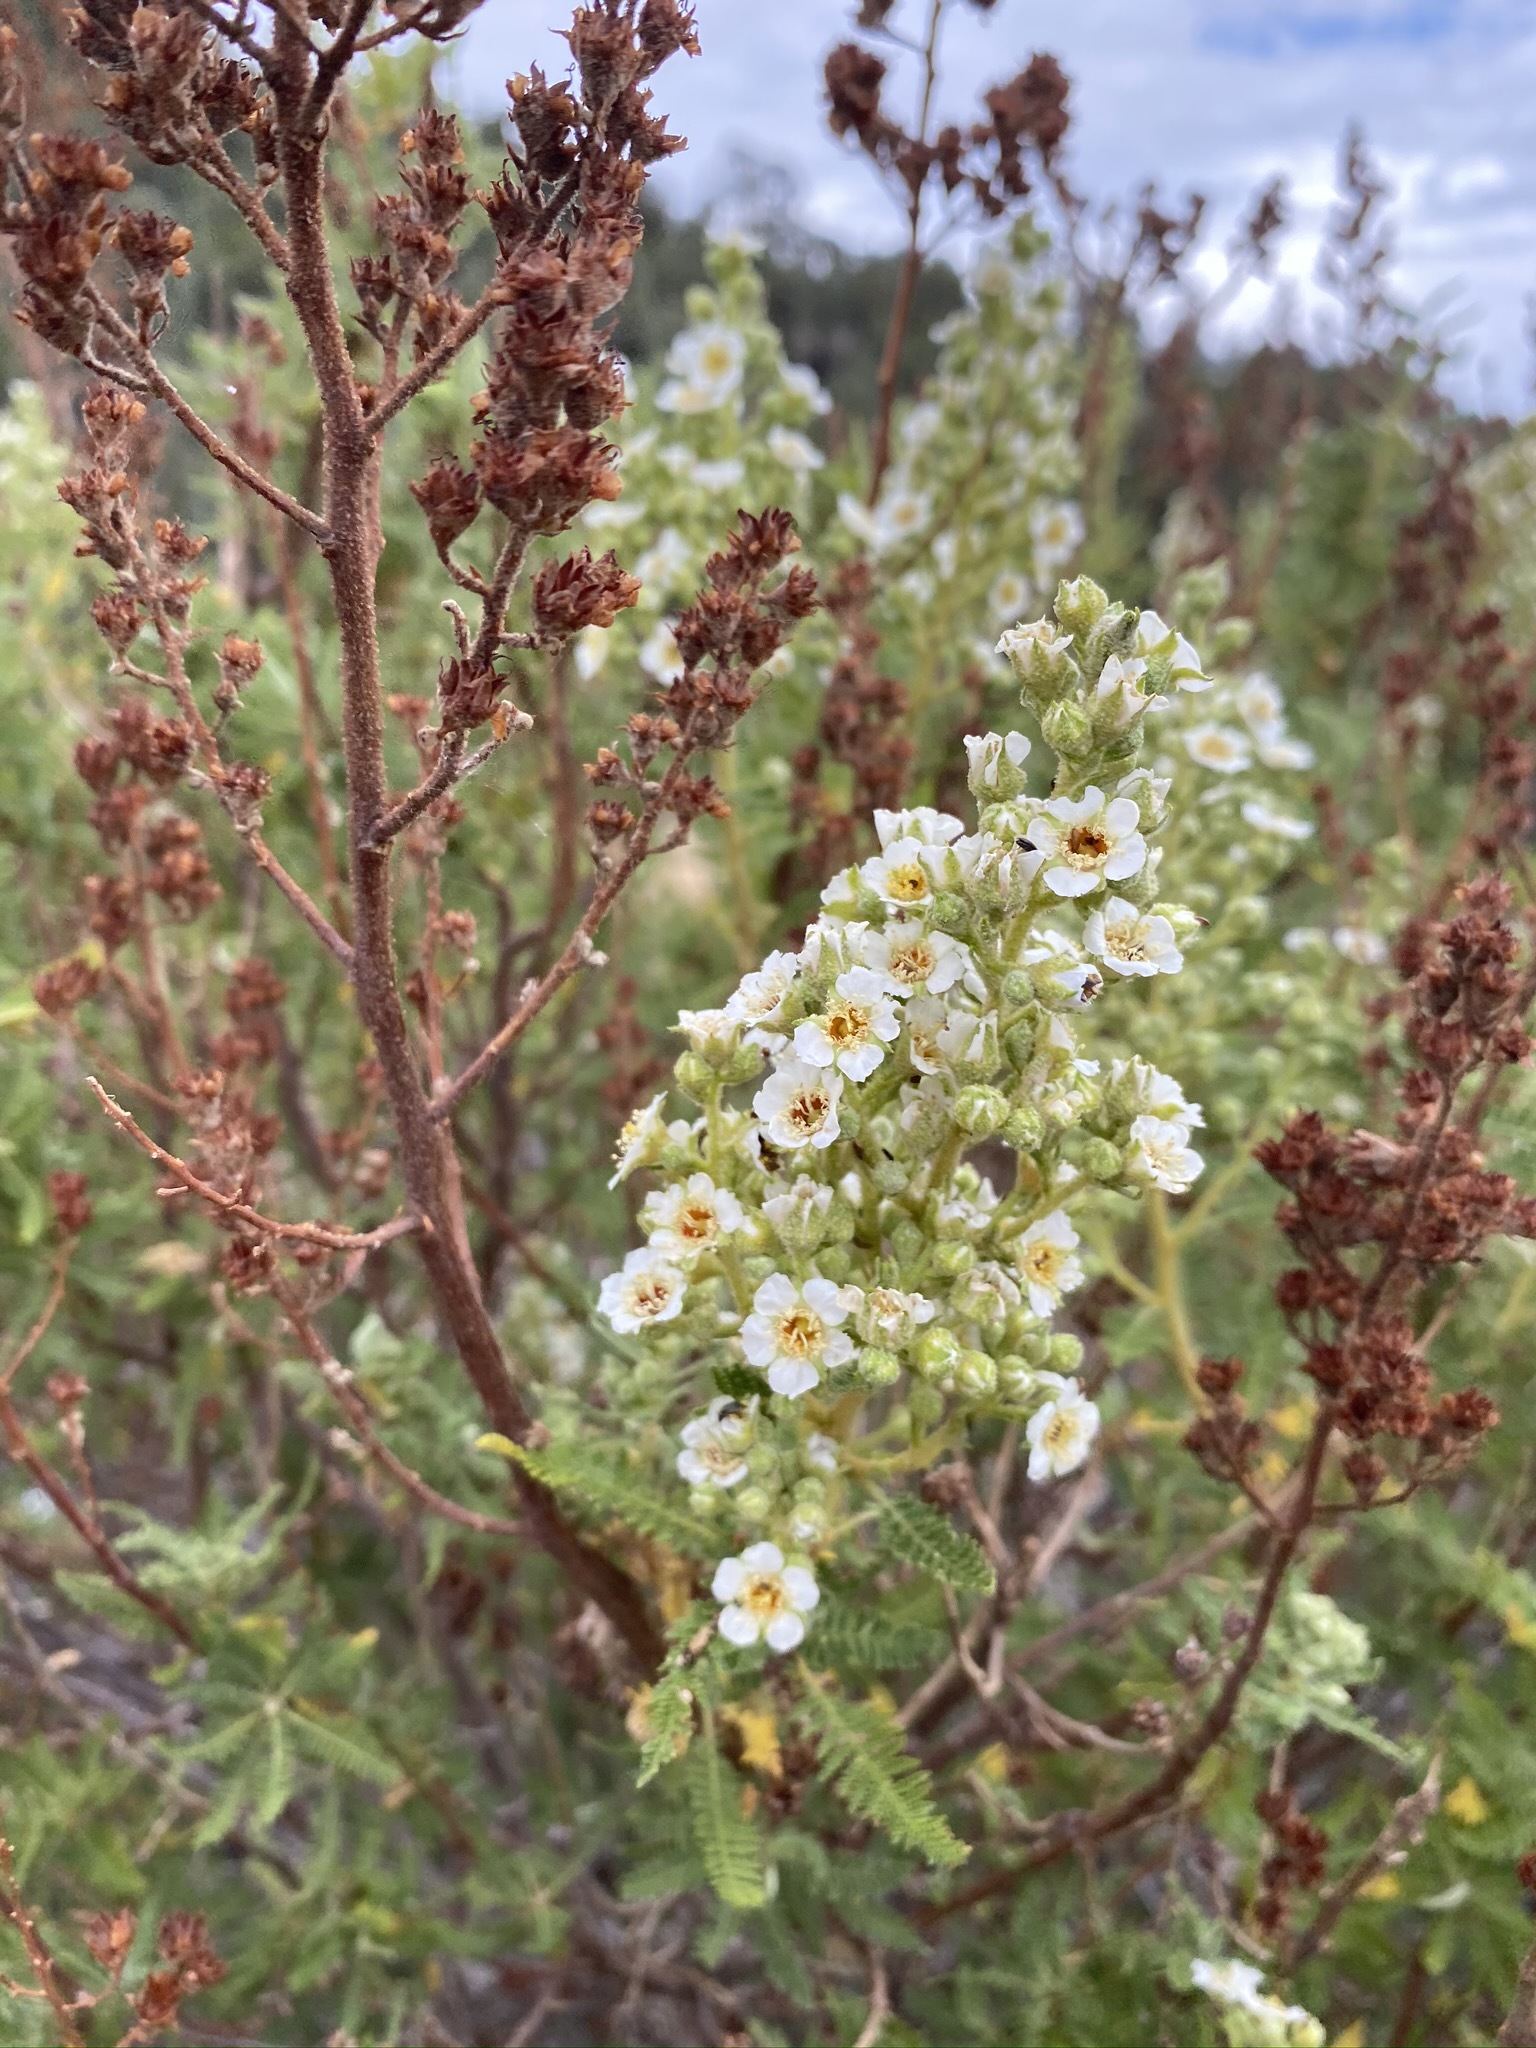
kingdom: Plantae
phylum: Tracheophyta
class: Magnoliopsida
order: Rosales
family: Rosaceae
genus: Chamaebatiaria
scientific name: Chamaebatiaria millefolium
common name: Fernbush
